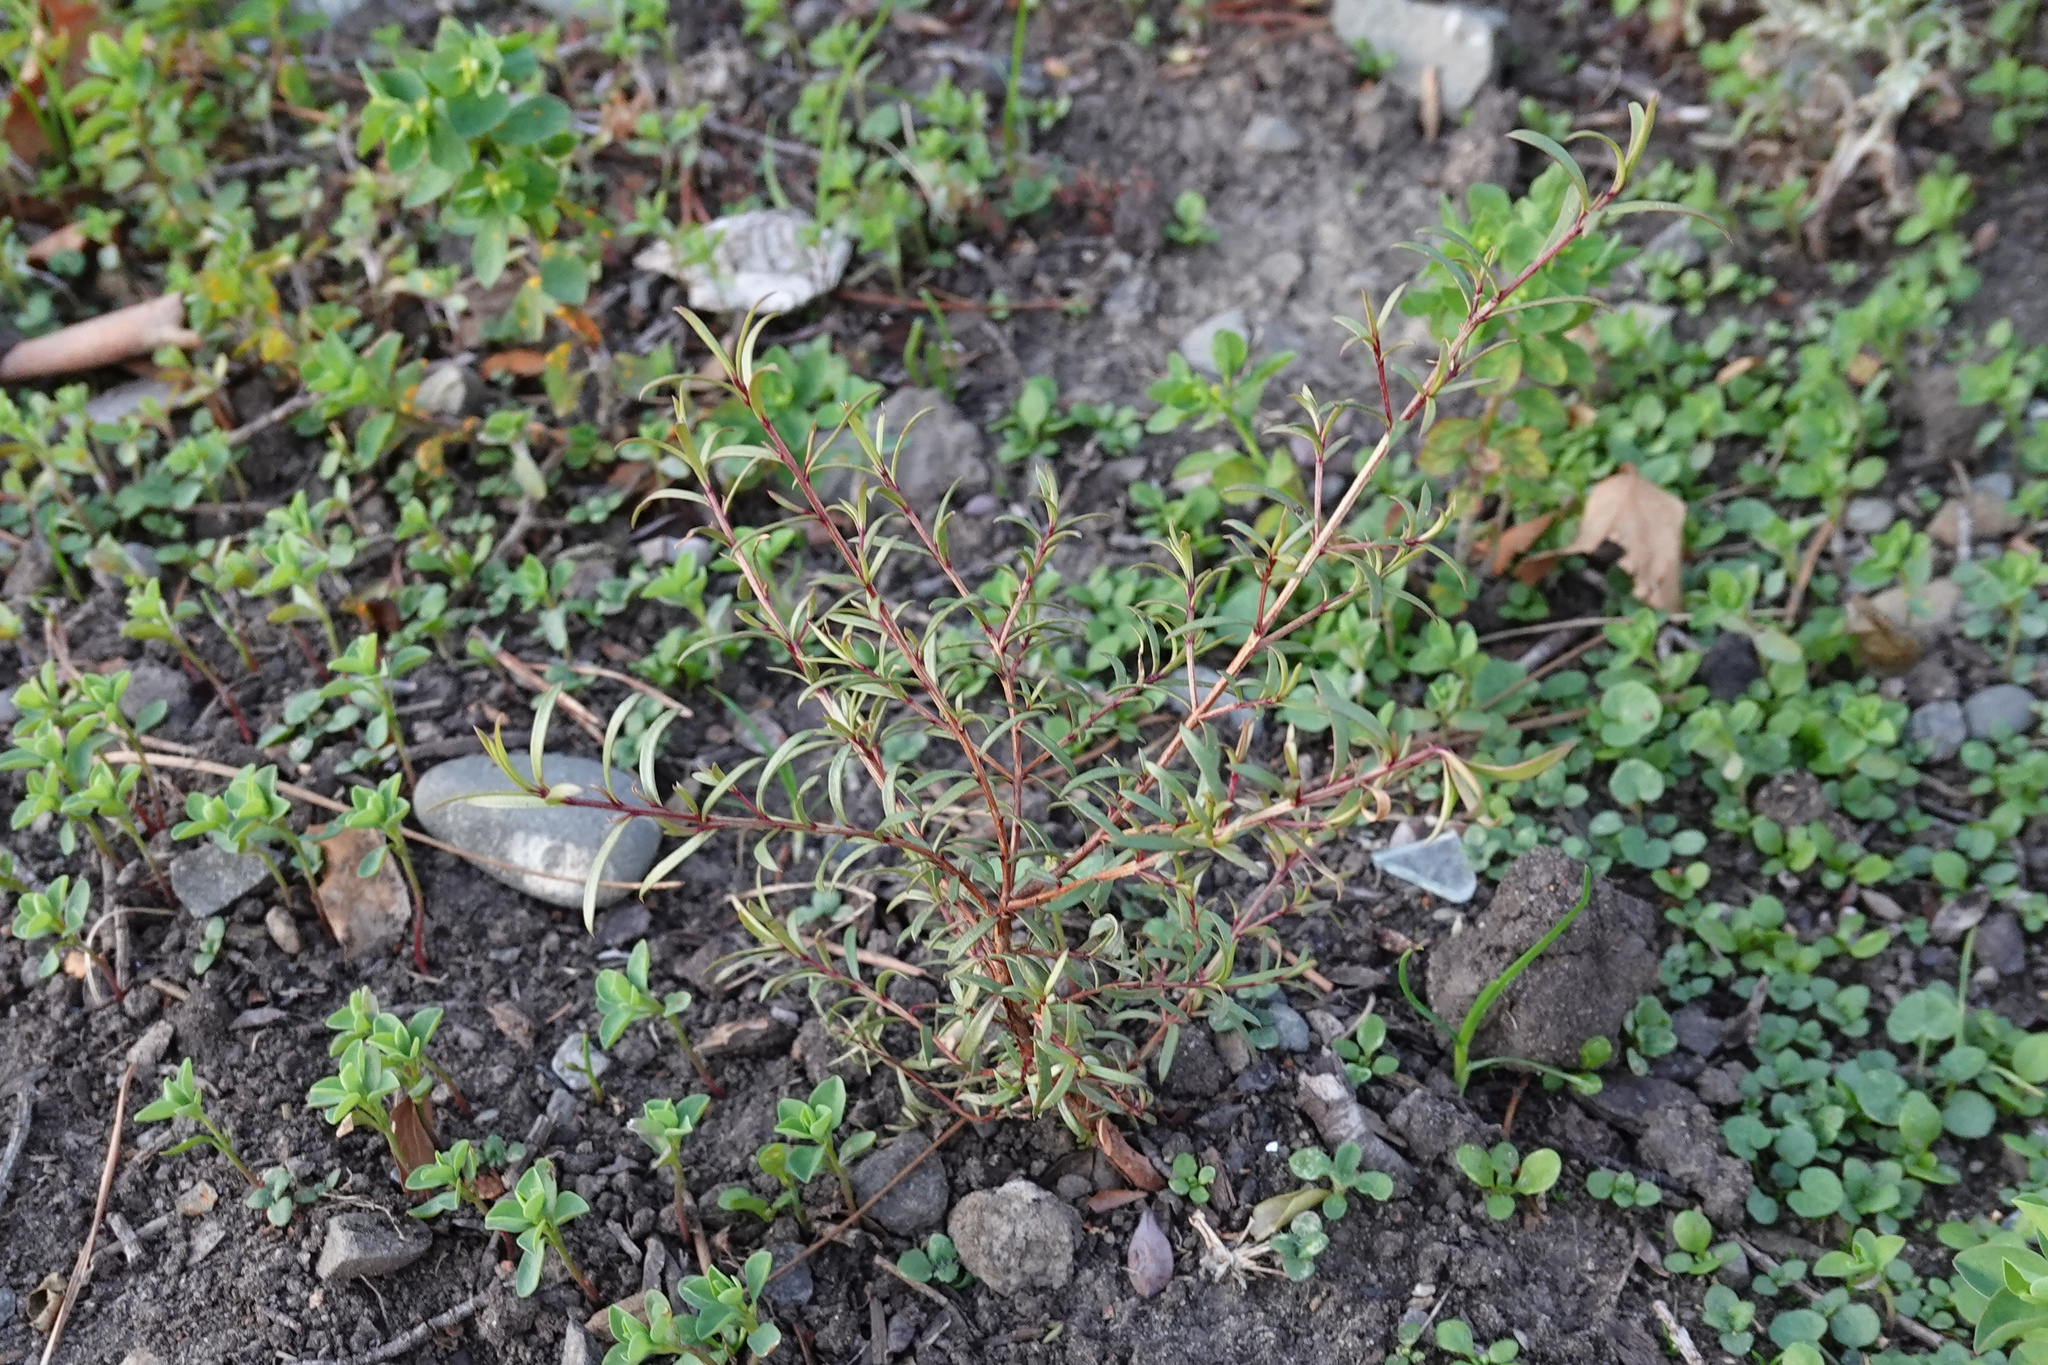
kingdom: Plantae
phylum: Tracheophyta
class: Magnoliopsida
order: Myrtales
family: Myrtaceae
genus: Kunzea
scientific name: Kunzea robusta
